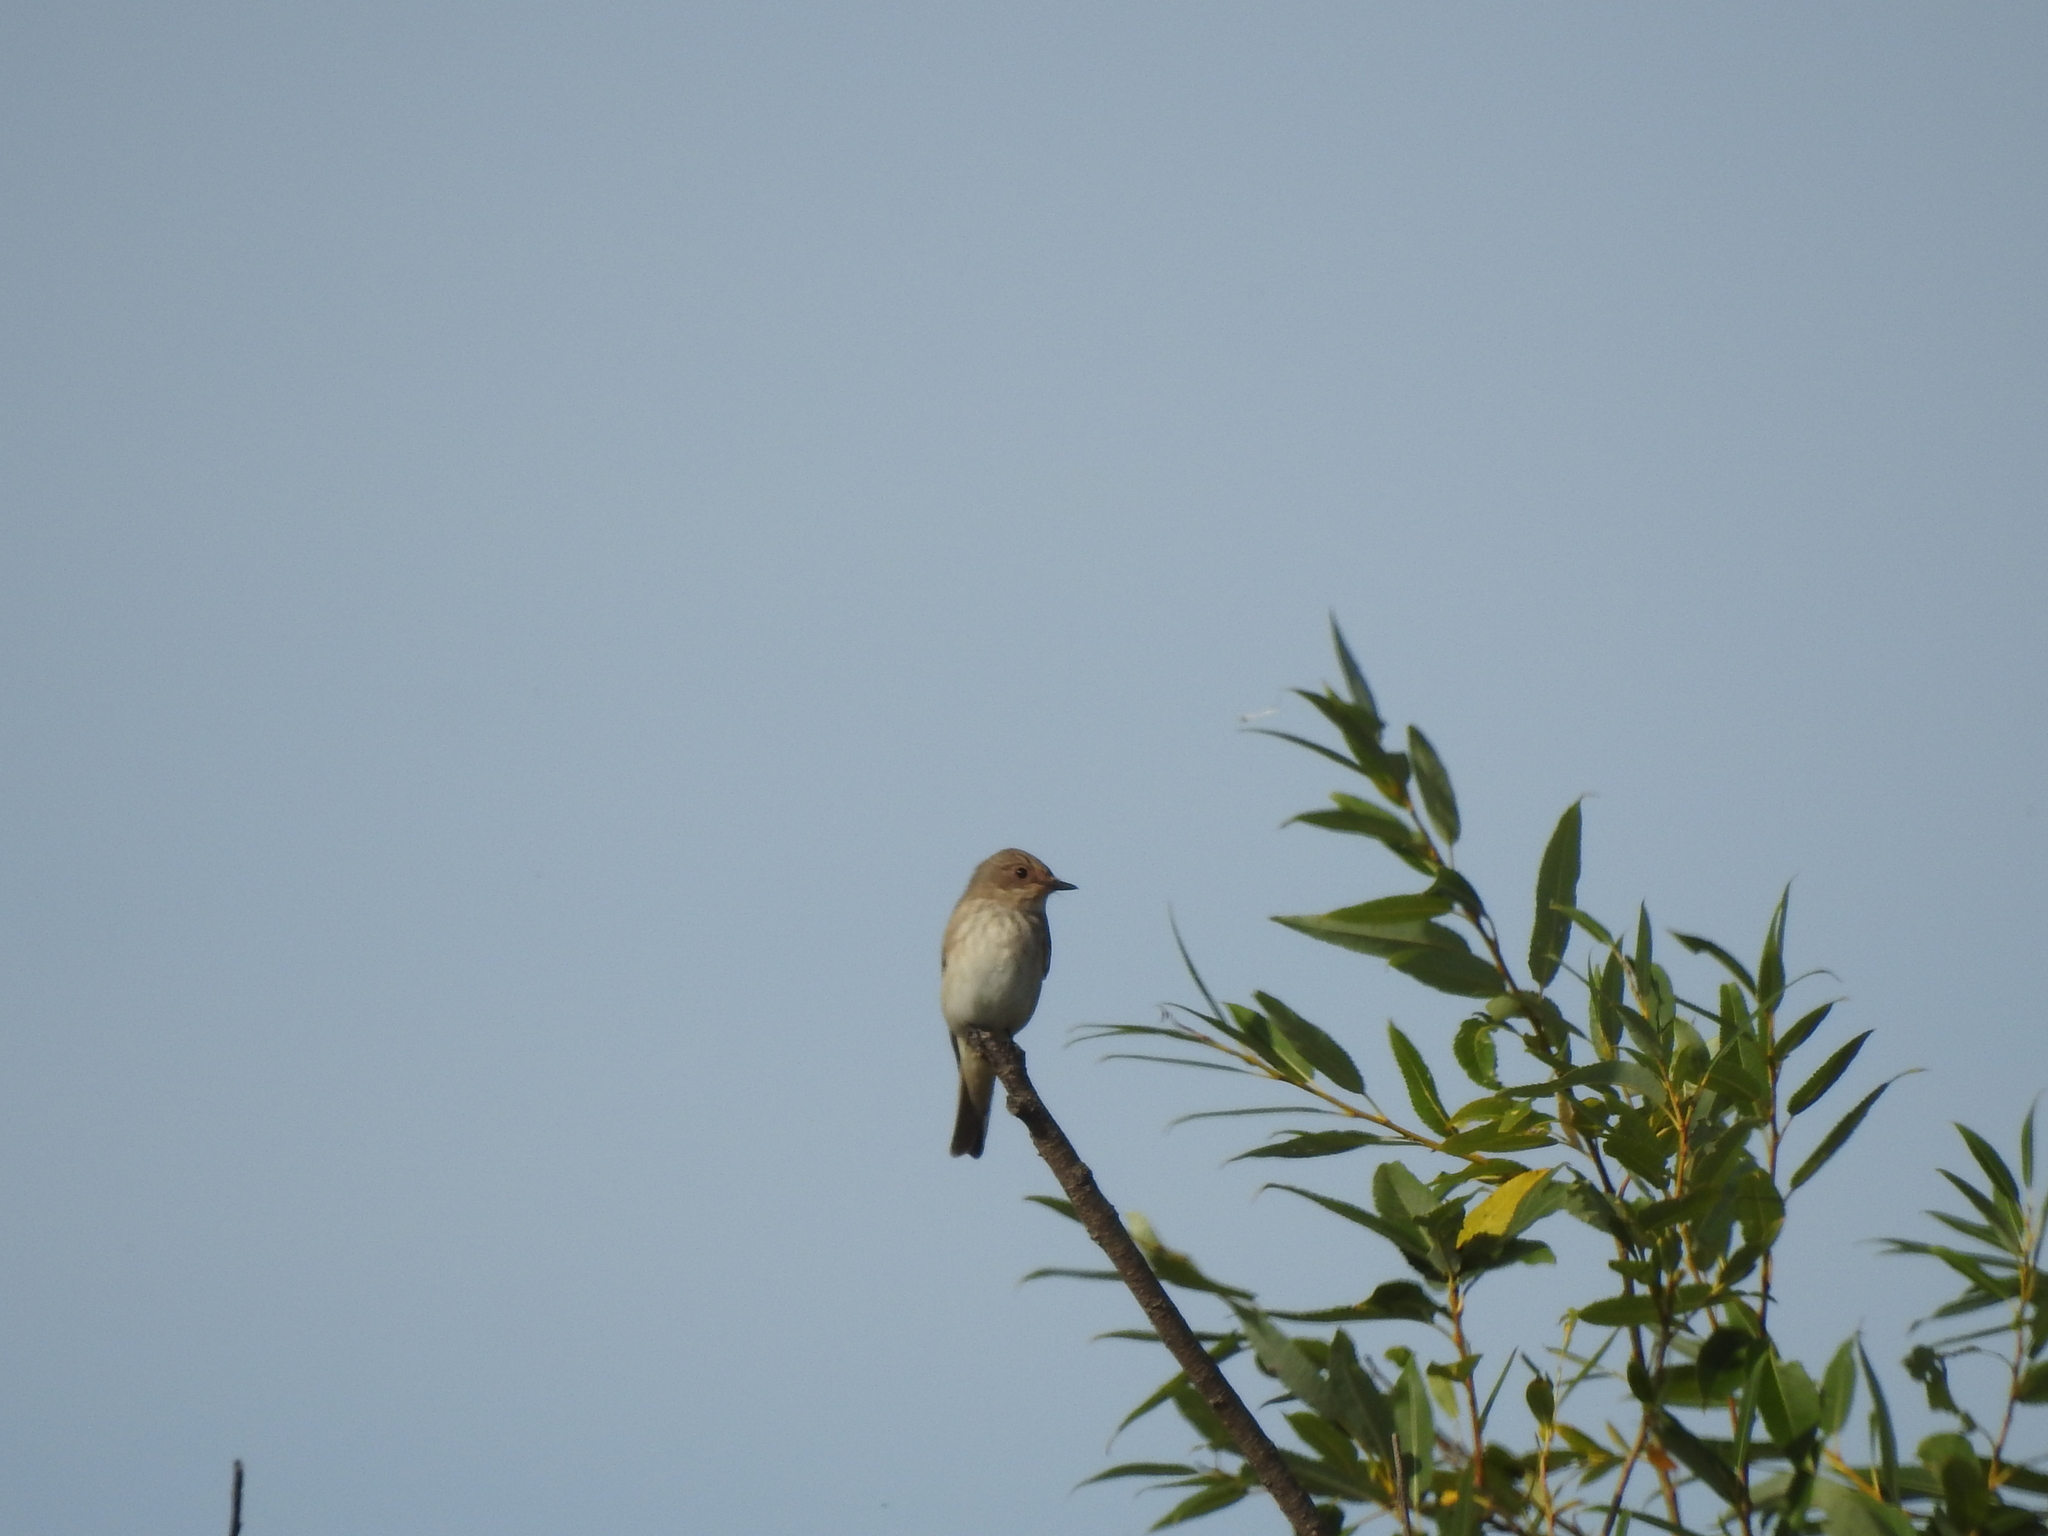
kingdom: Animalia
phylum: Chordata
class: Aves
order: Passeriformes
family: Muscicapidae
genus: Muscicapa
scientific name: Muscicapa striata
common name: Spotted flycatcher
